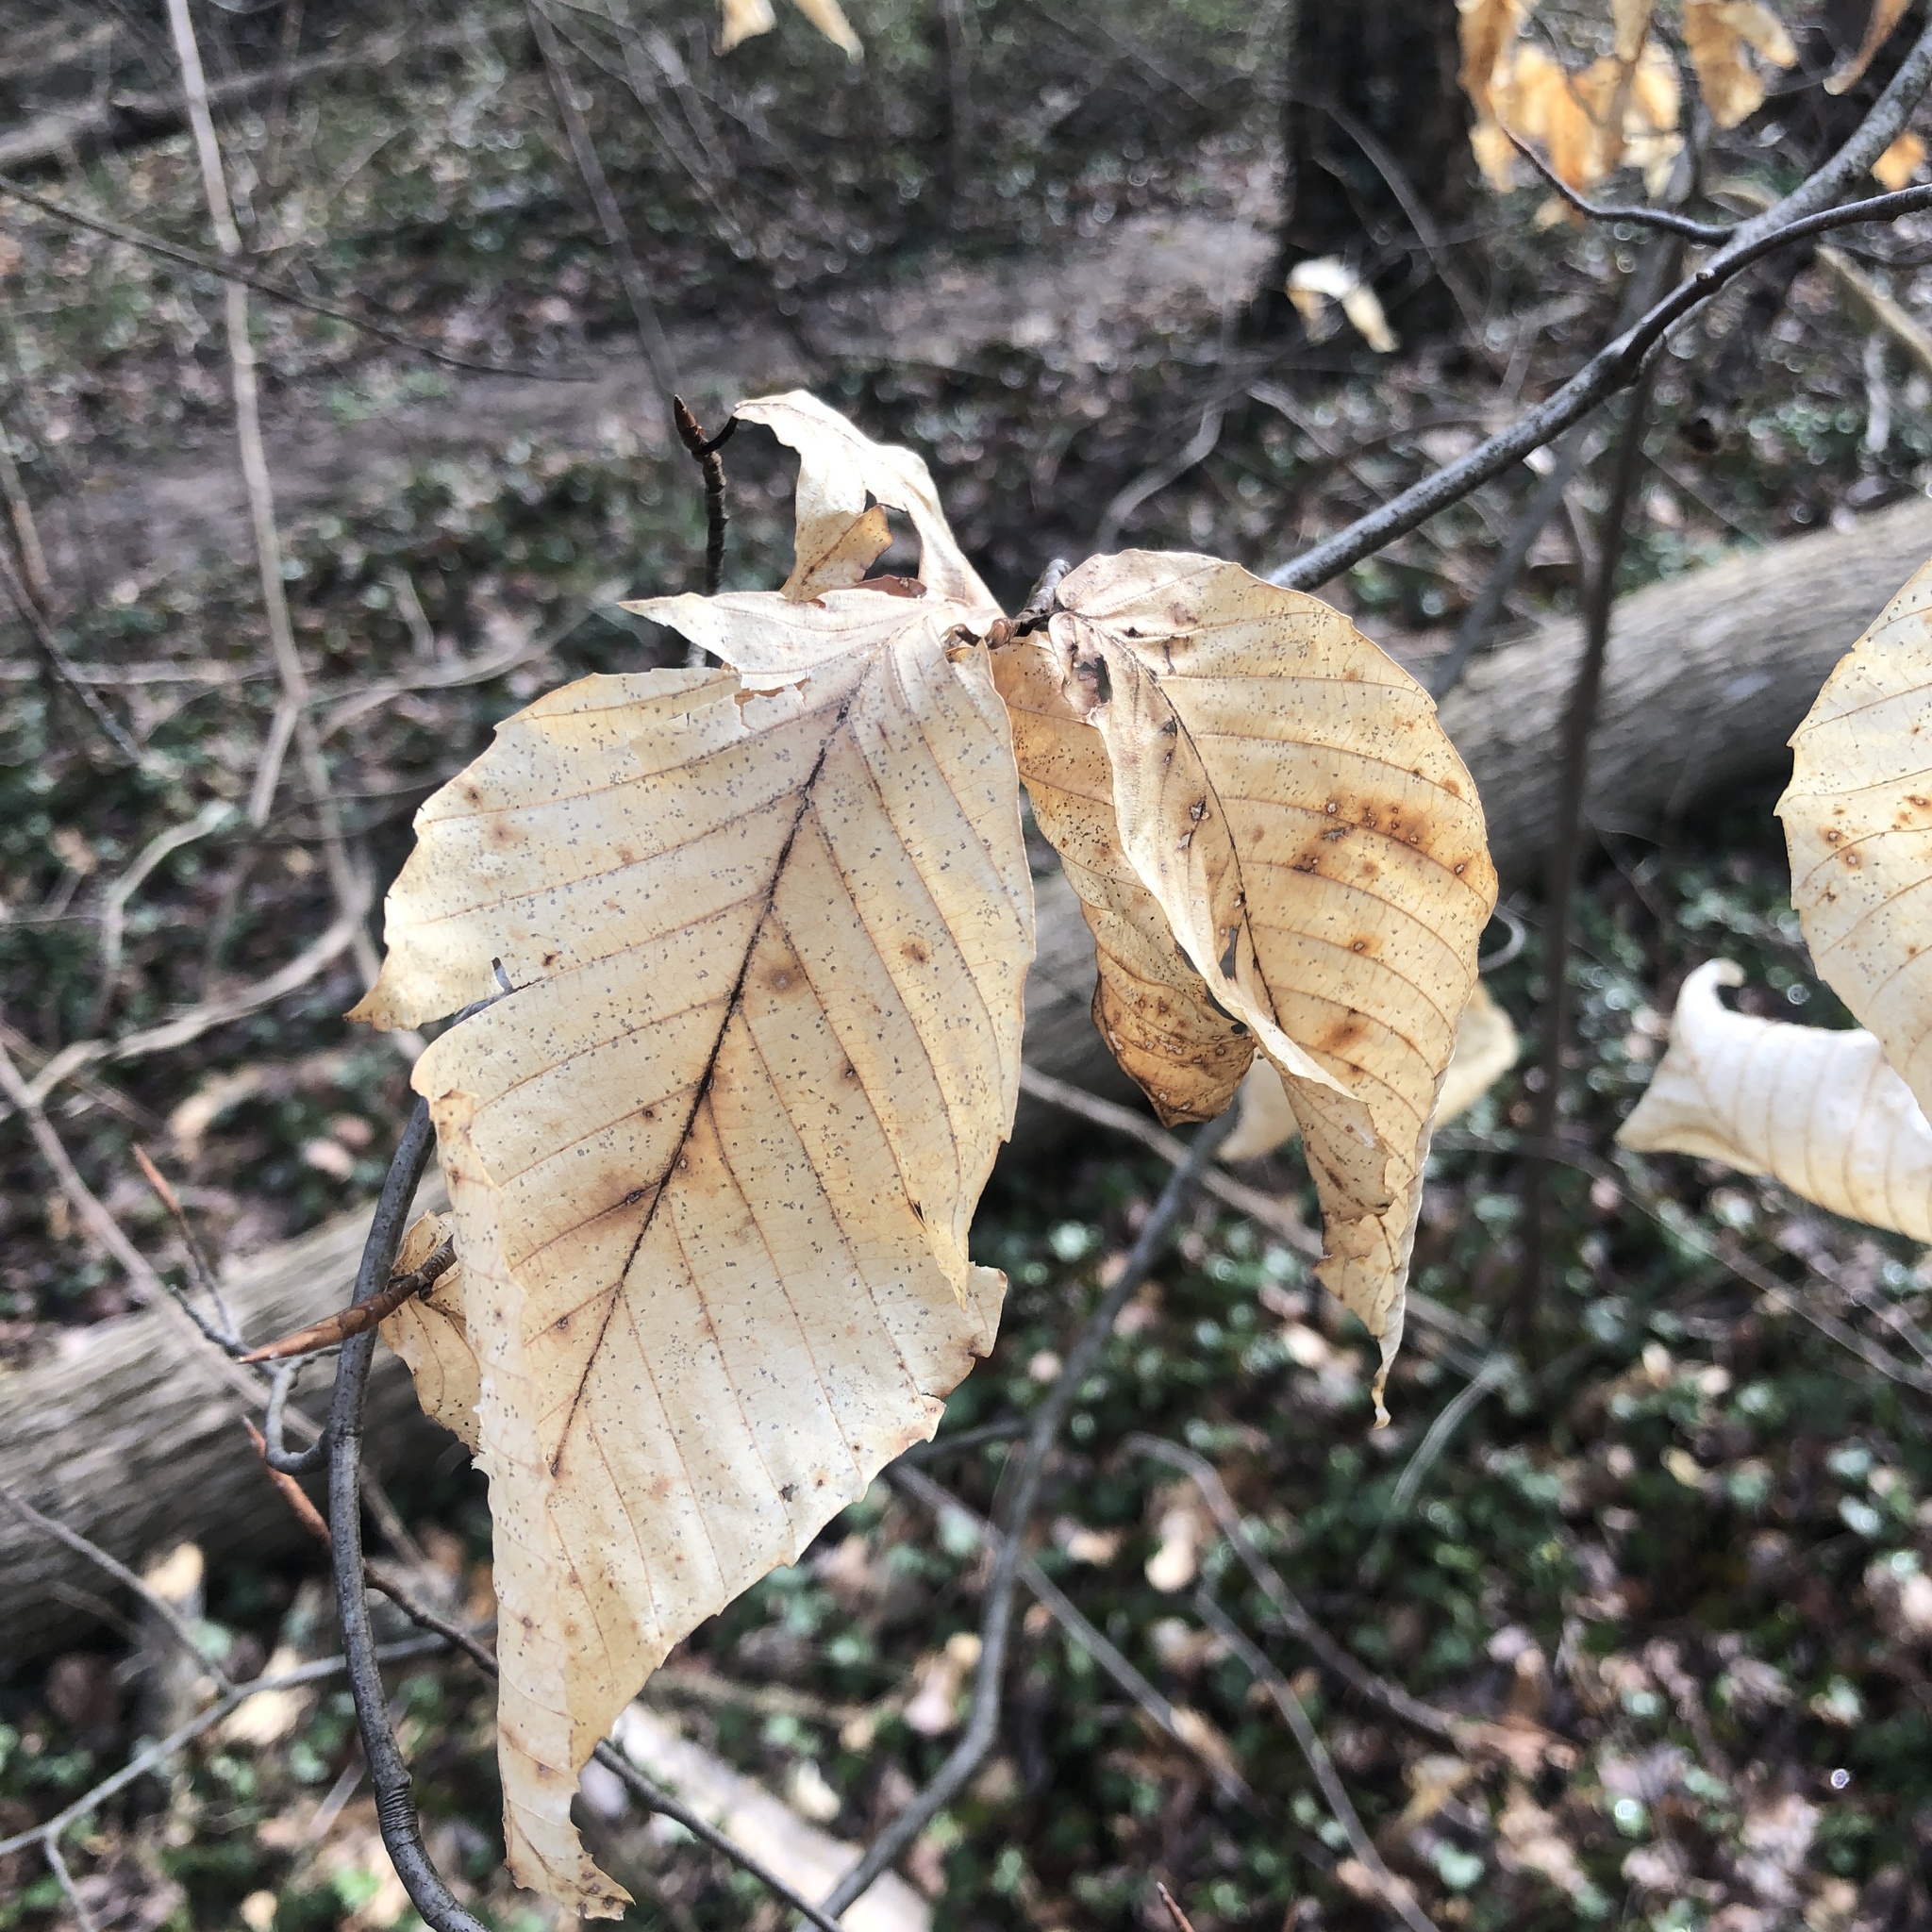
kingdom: Plantae
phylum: Tracheophyta
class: Magnoliopsida
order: Fagales
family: Fagaceae
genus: Fagus
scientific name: Fagus grandifolia
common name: American beech
